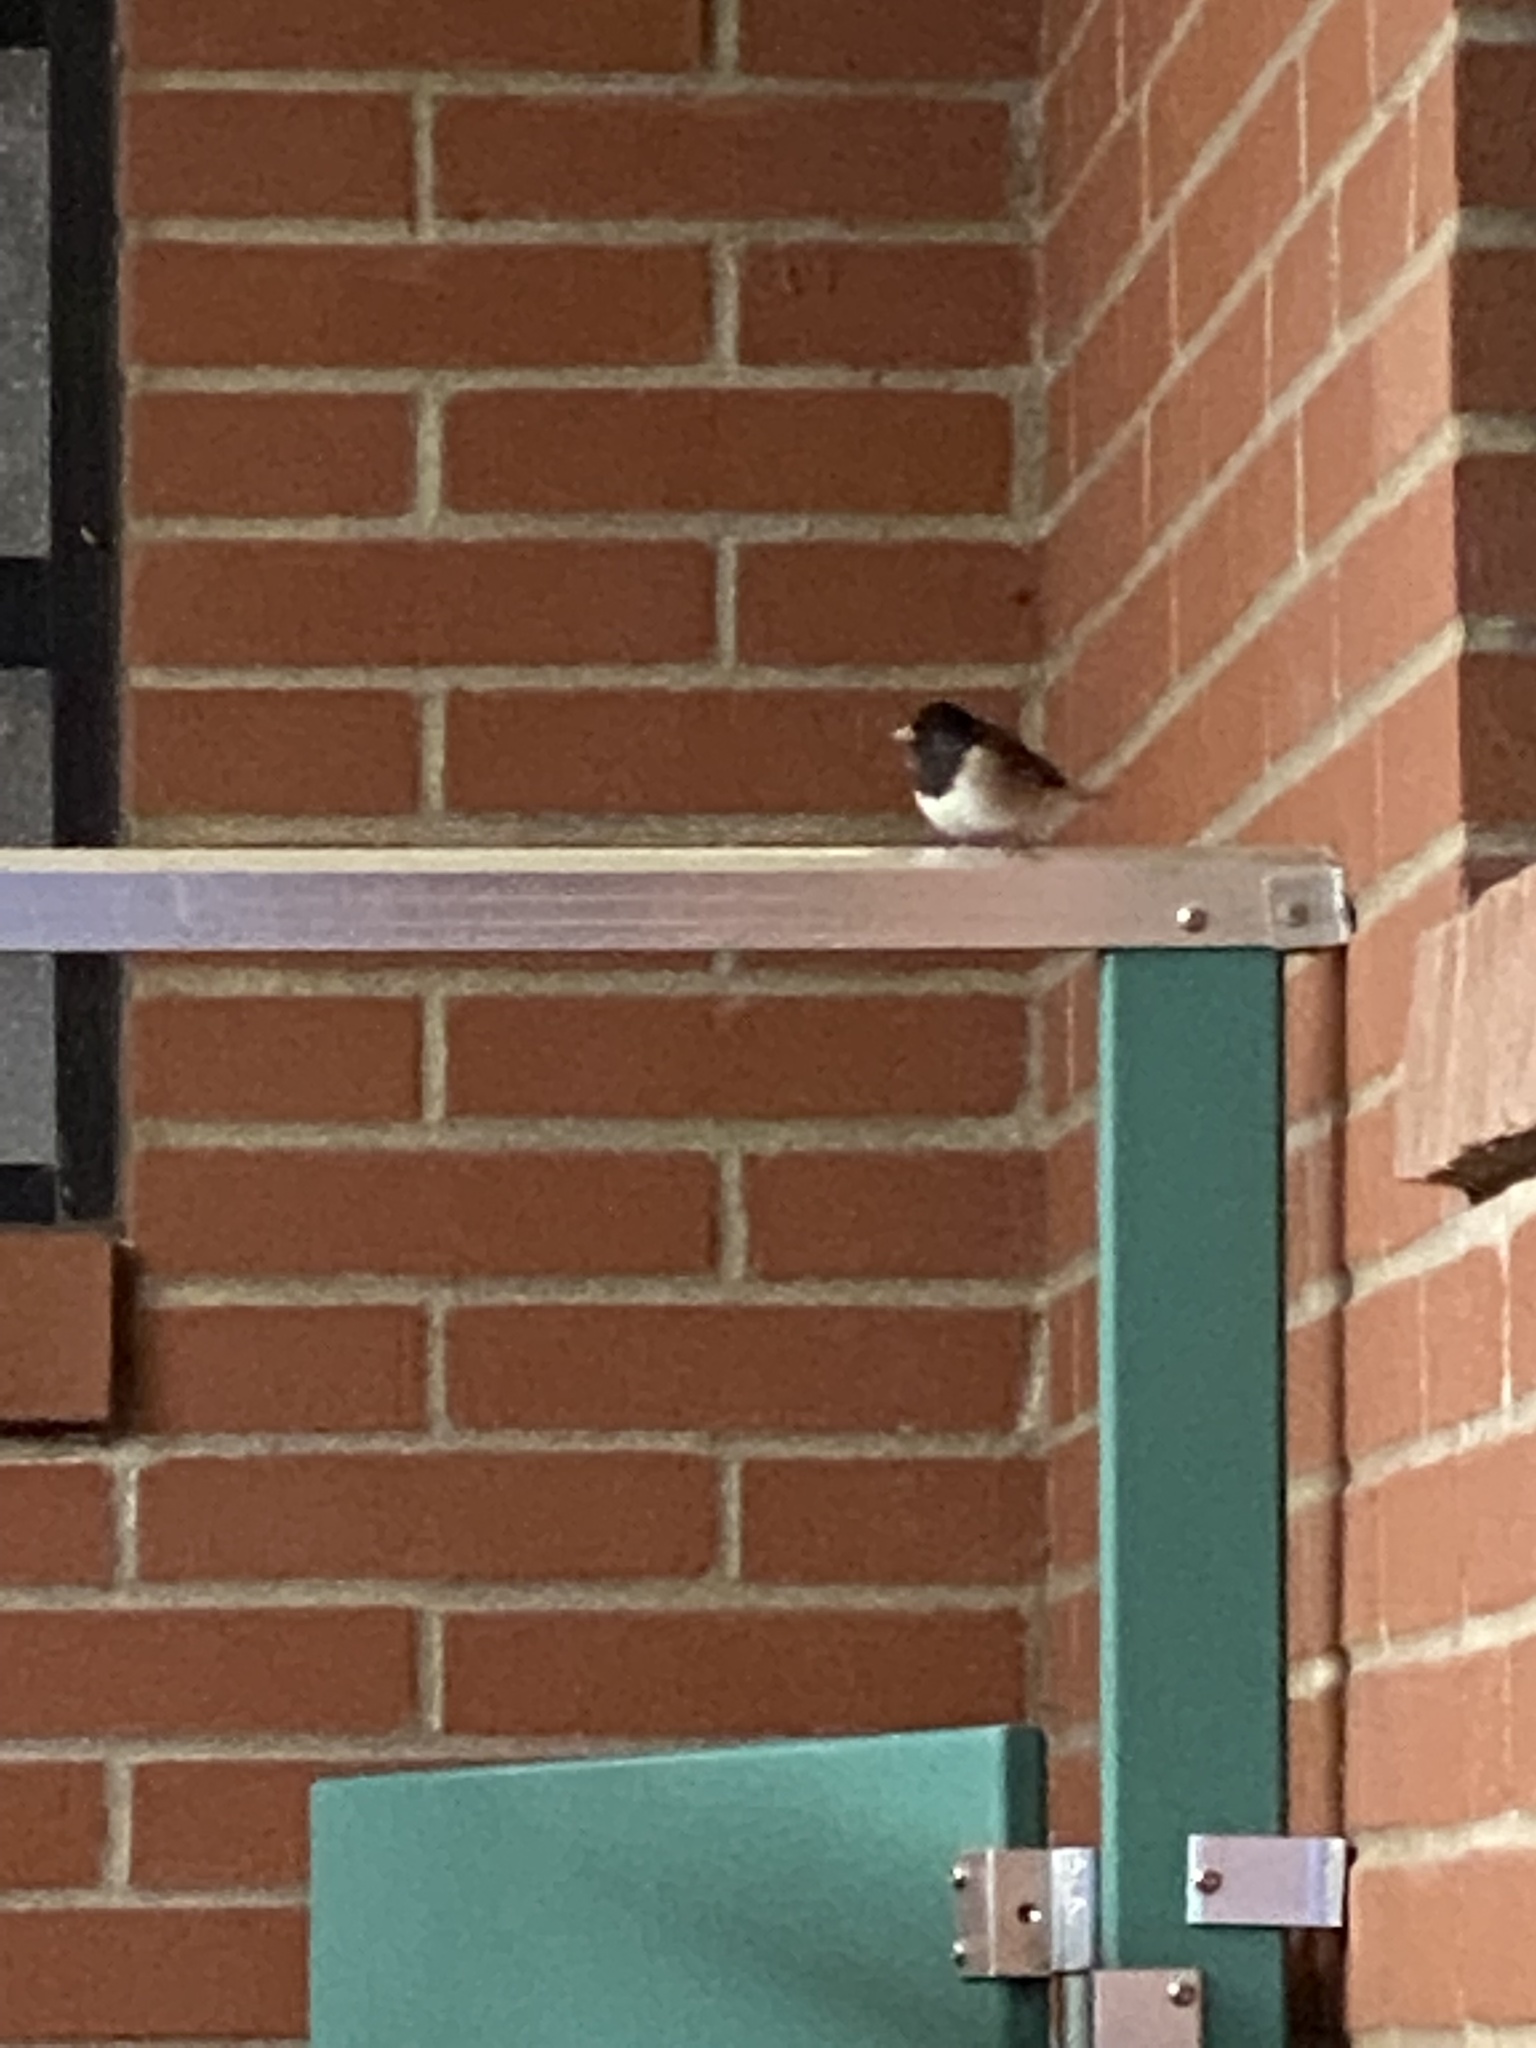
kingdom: Animalia
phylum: Chordata
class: Aves
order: Passeriformes
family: Passerellidae
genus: Junco
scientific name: Junco hyemalis
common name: Dark-eyed junco
